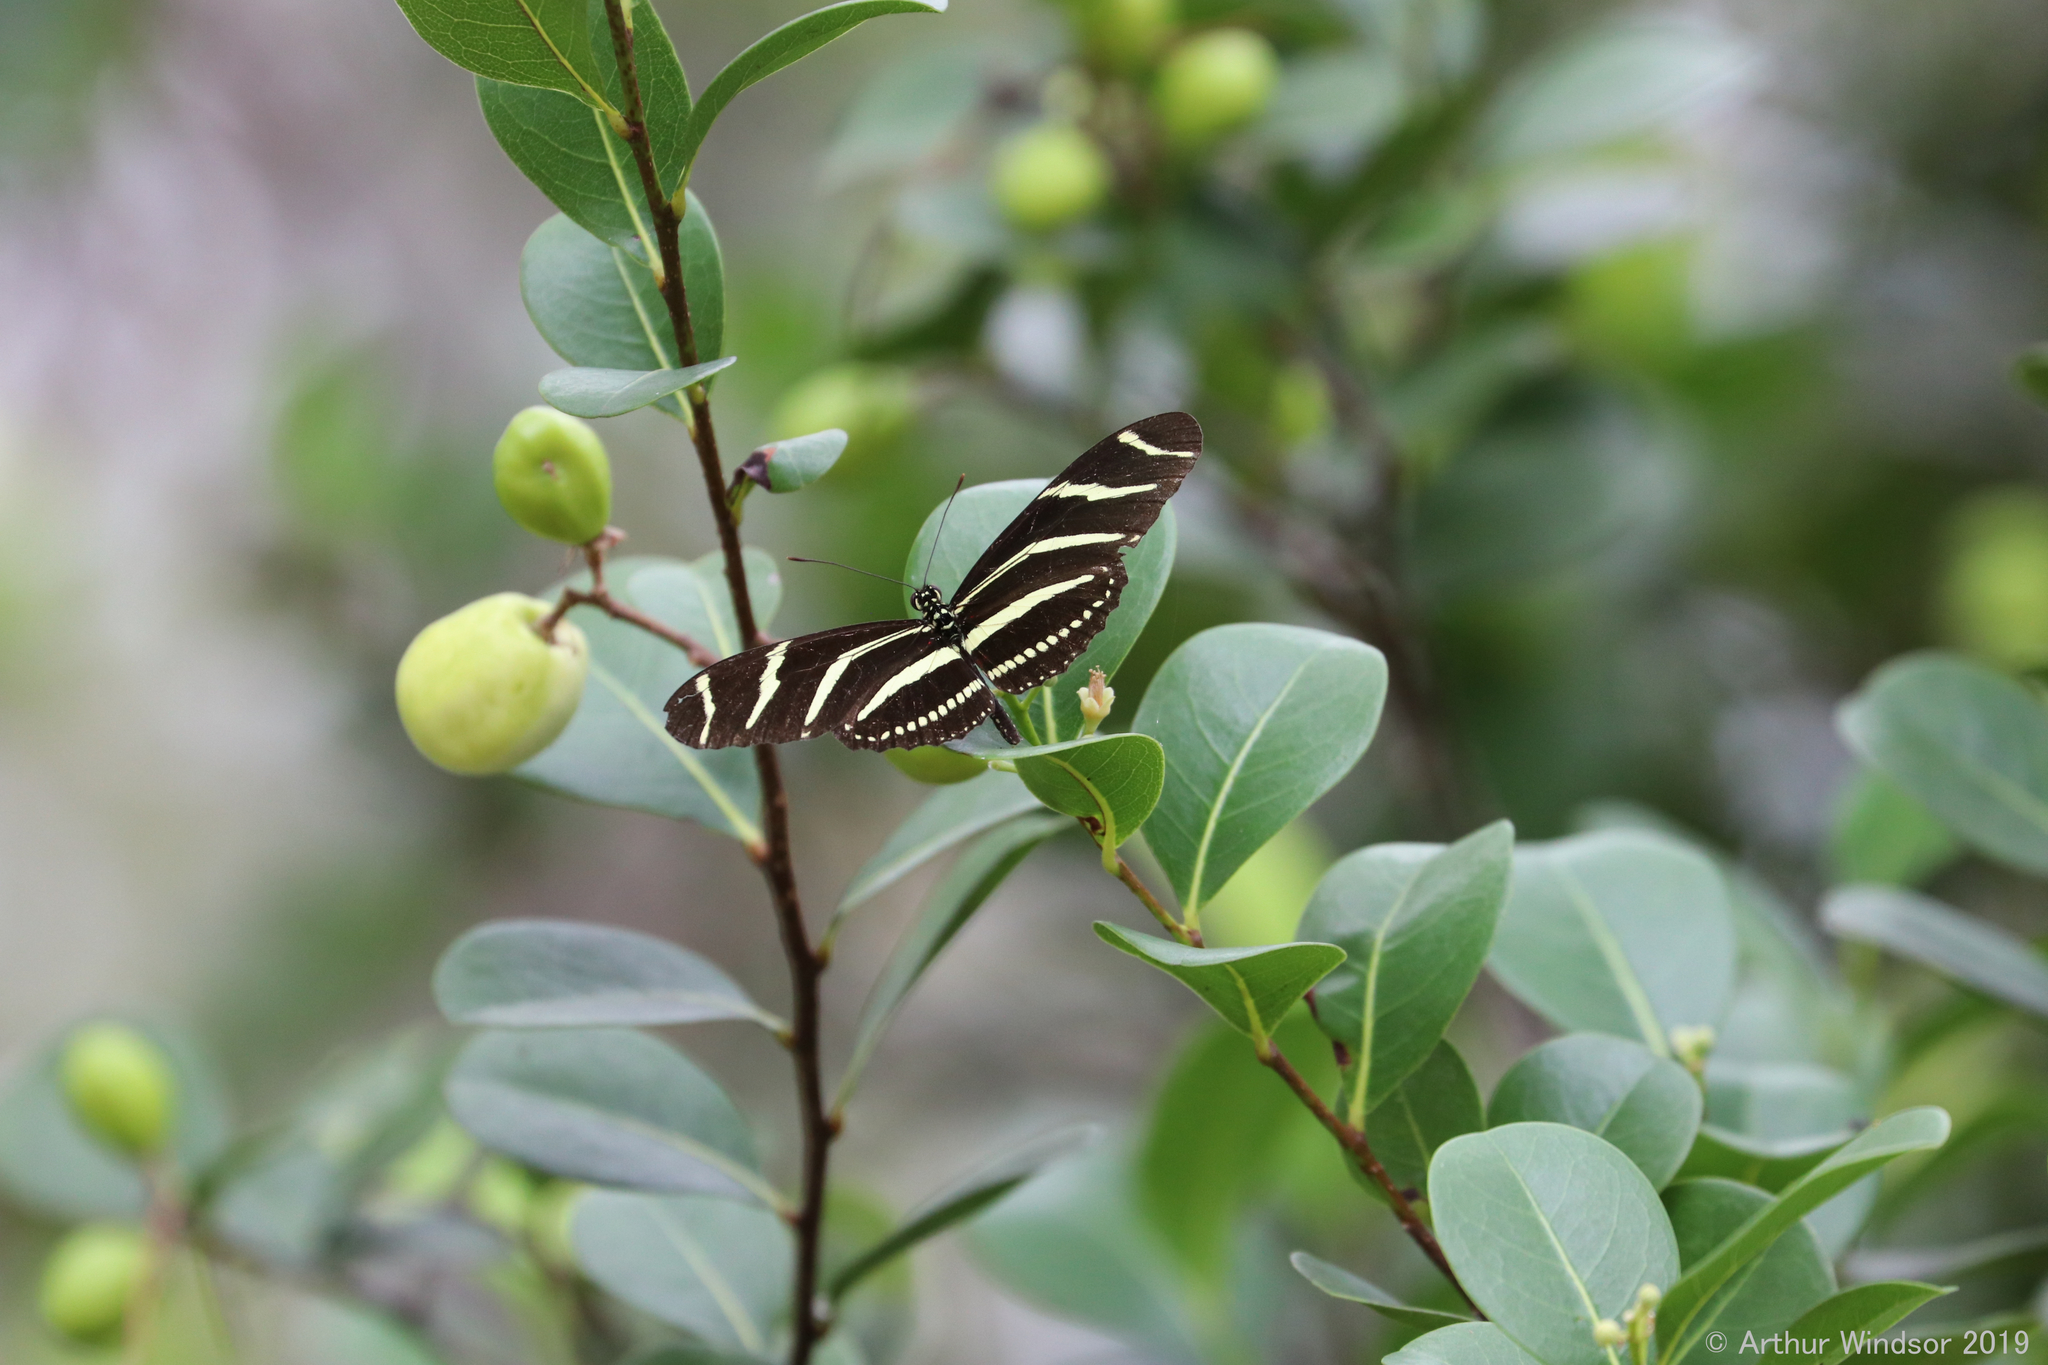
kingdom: Animalia
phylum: Arthropoda
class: Insecta
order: Lepidoptera
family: Nymphalidae
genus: Heliconius
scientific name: Heliconius charithonia
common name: Zebra long wing
